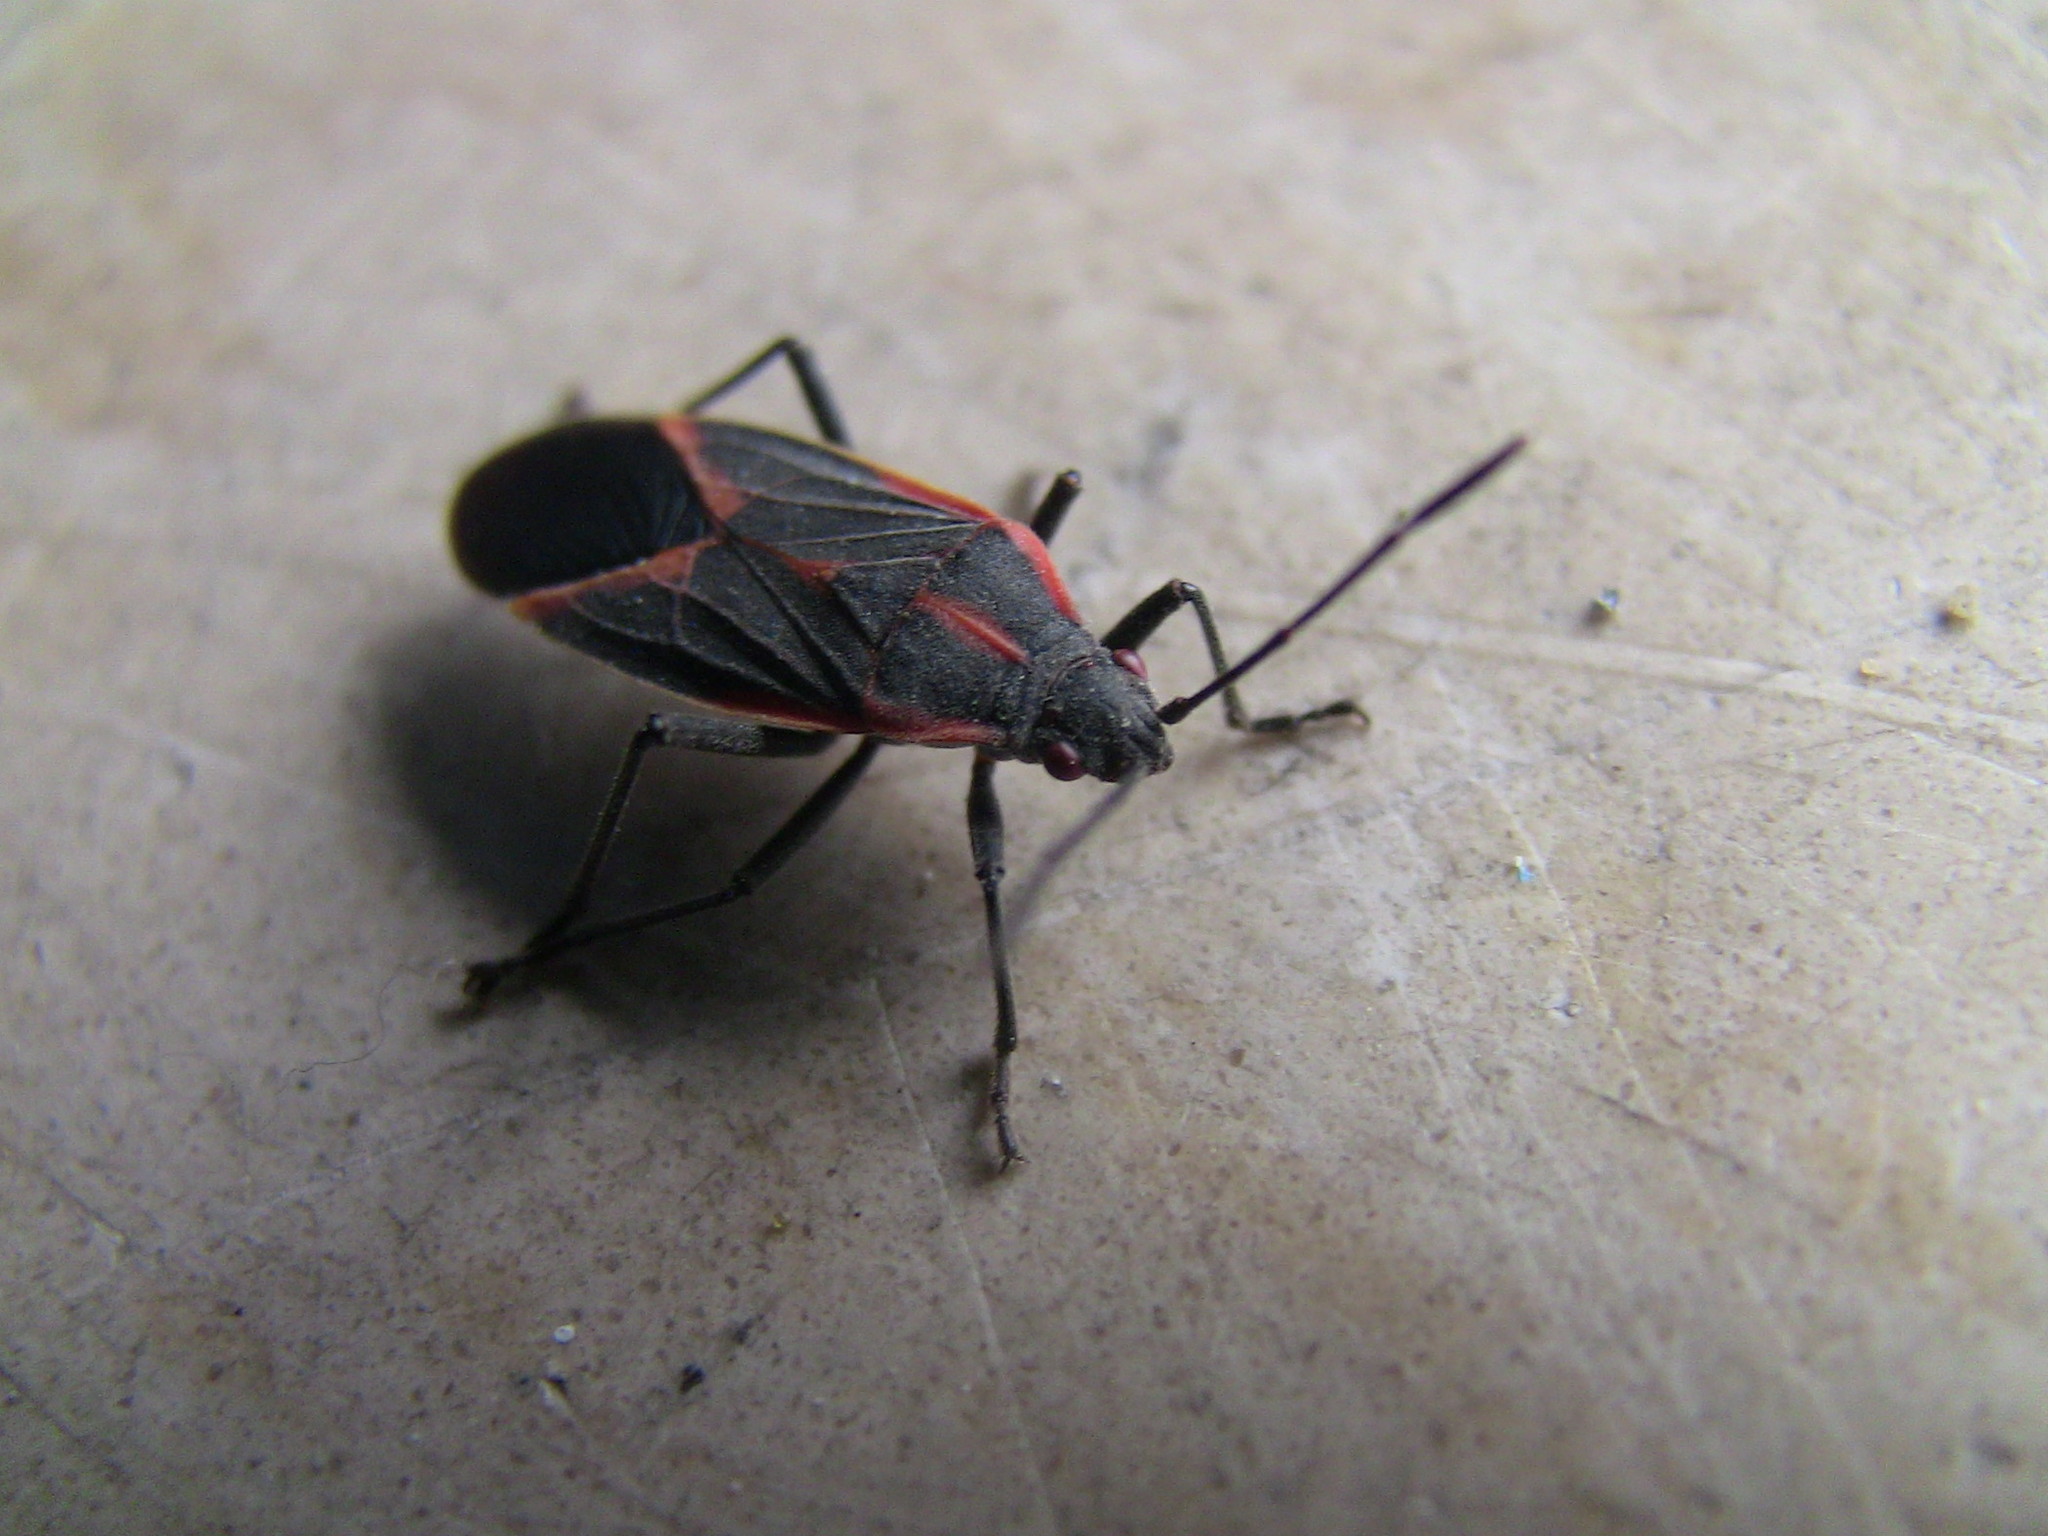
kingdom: Animalia
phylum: Arthropoda
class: Insecta
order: Hemiptera
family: Rhopalidae
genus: Boisea
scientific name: Boisea trivittata
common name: Boxelder bug
